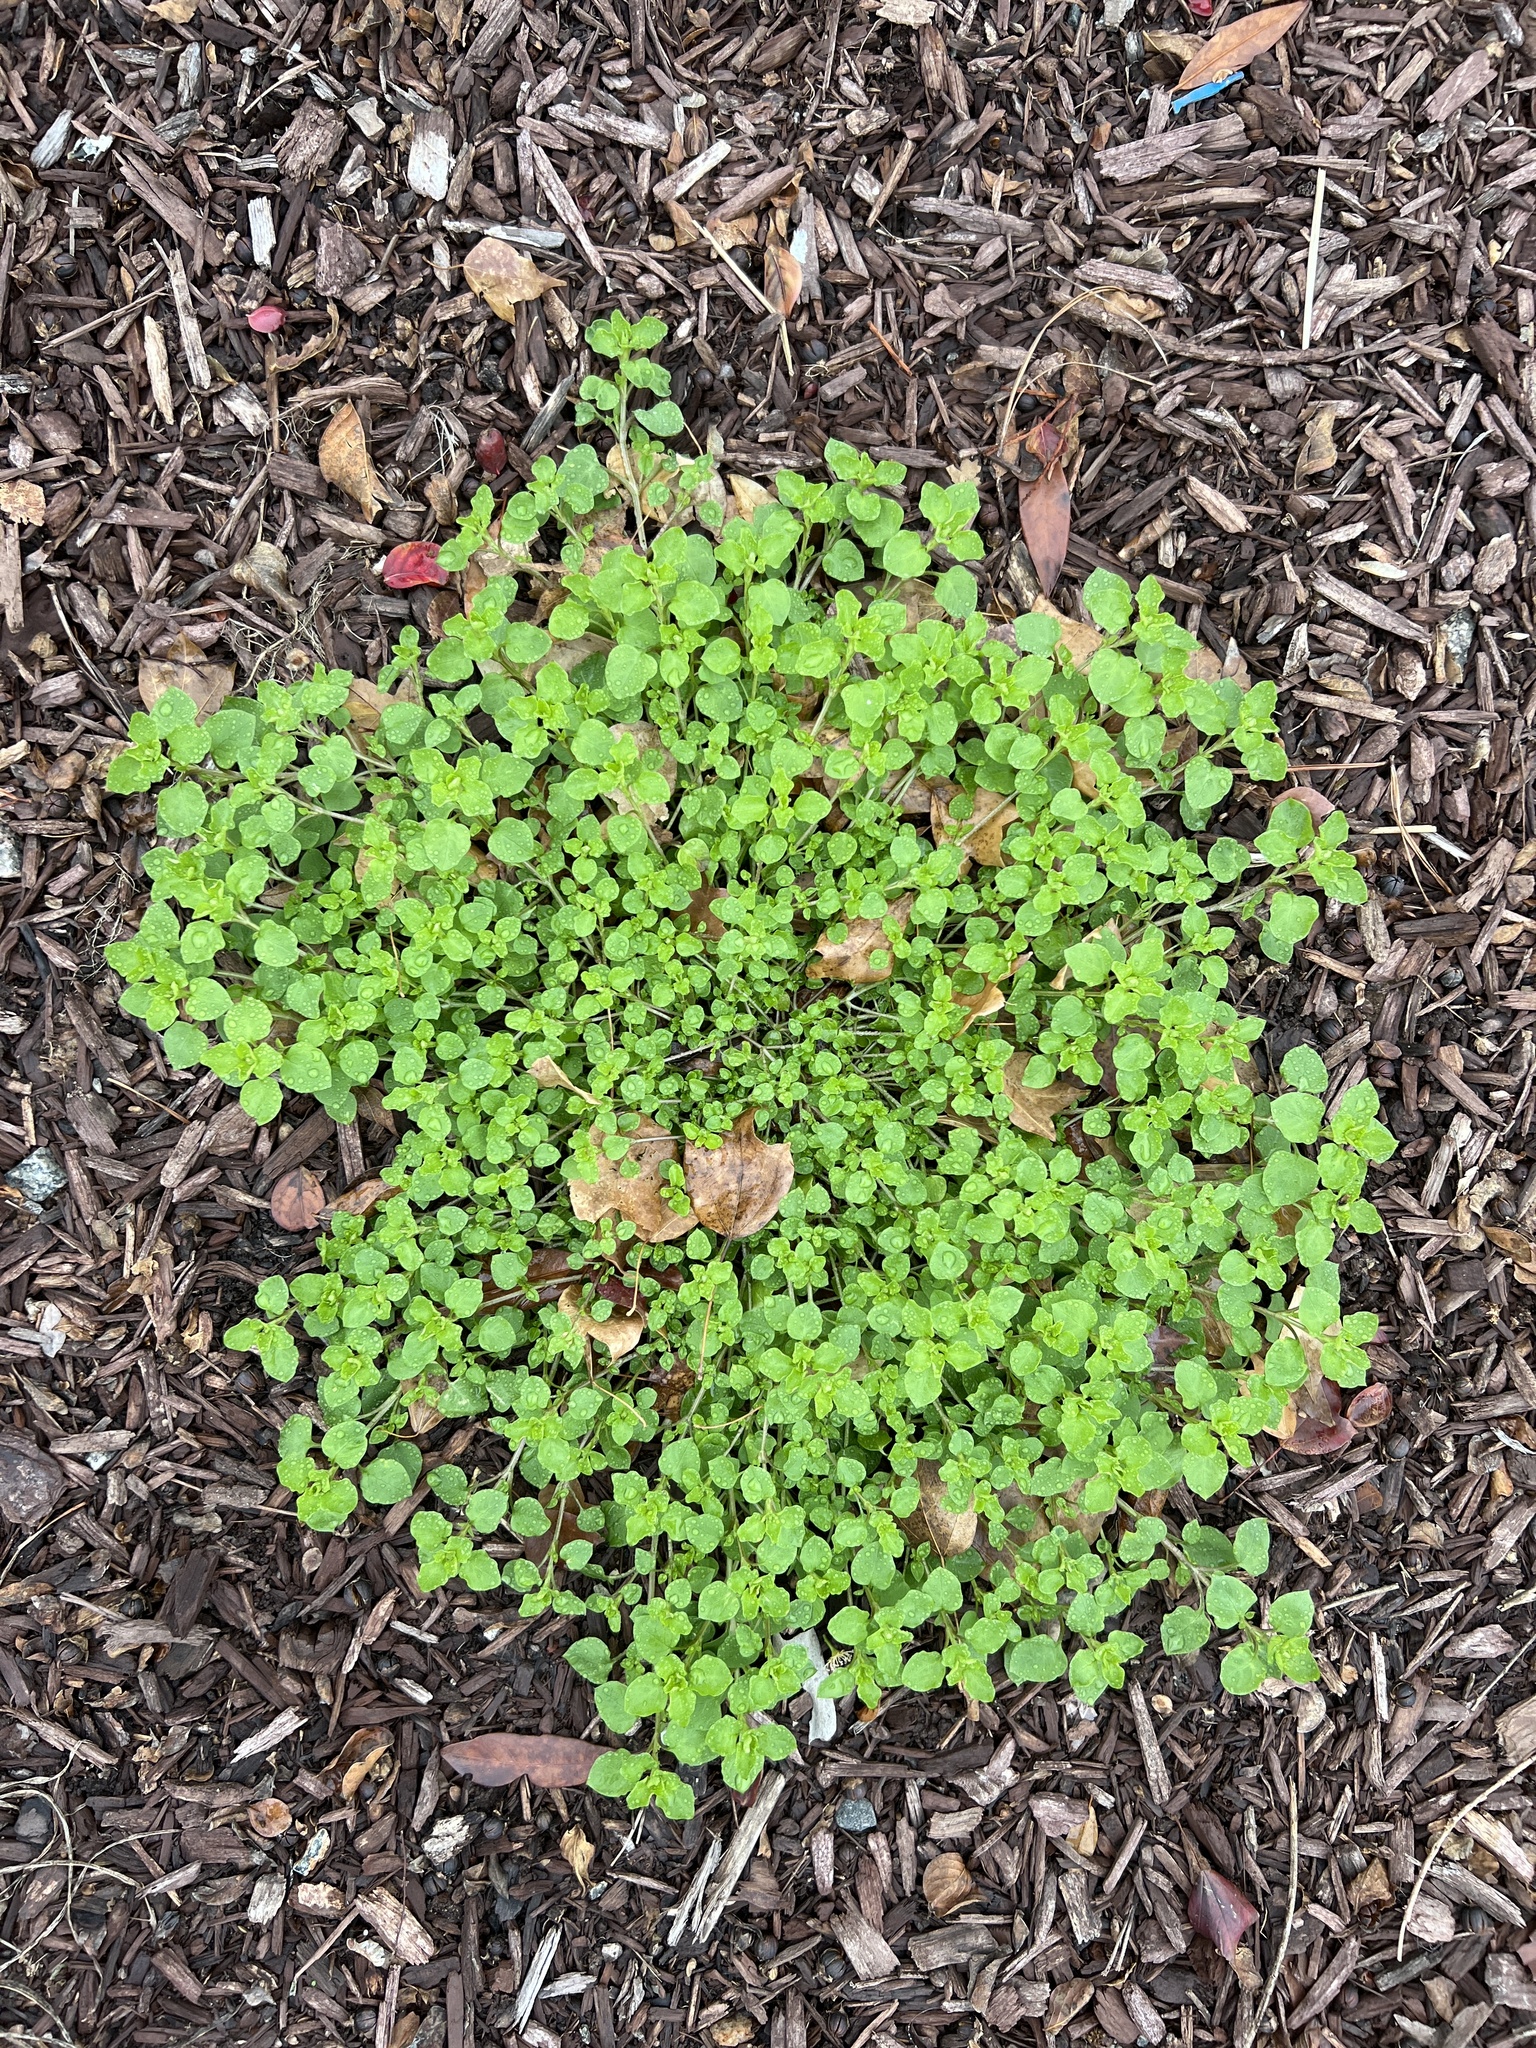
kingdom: Plantae
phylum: Tracheophyta
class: Magnoliopsida
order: Caryophyllales
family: Caryophyllaceae
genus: Stellaria
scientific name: Stellaria media
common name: Common chickweed
